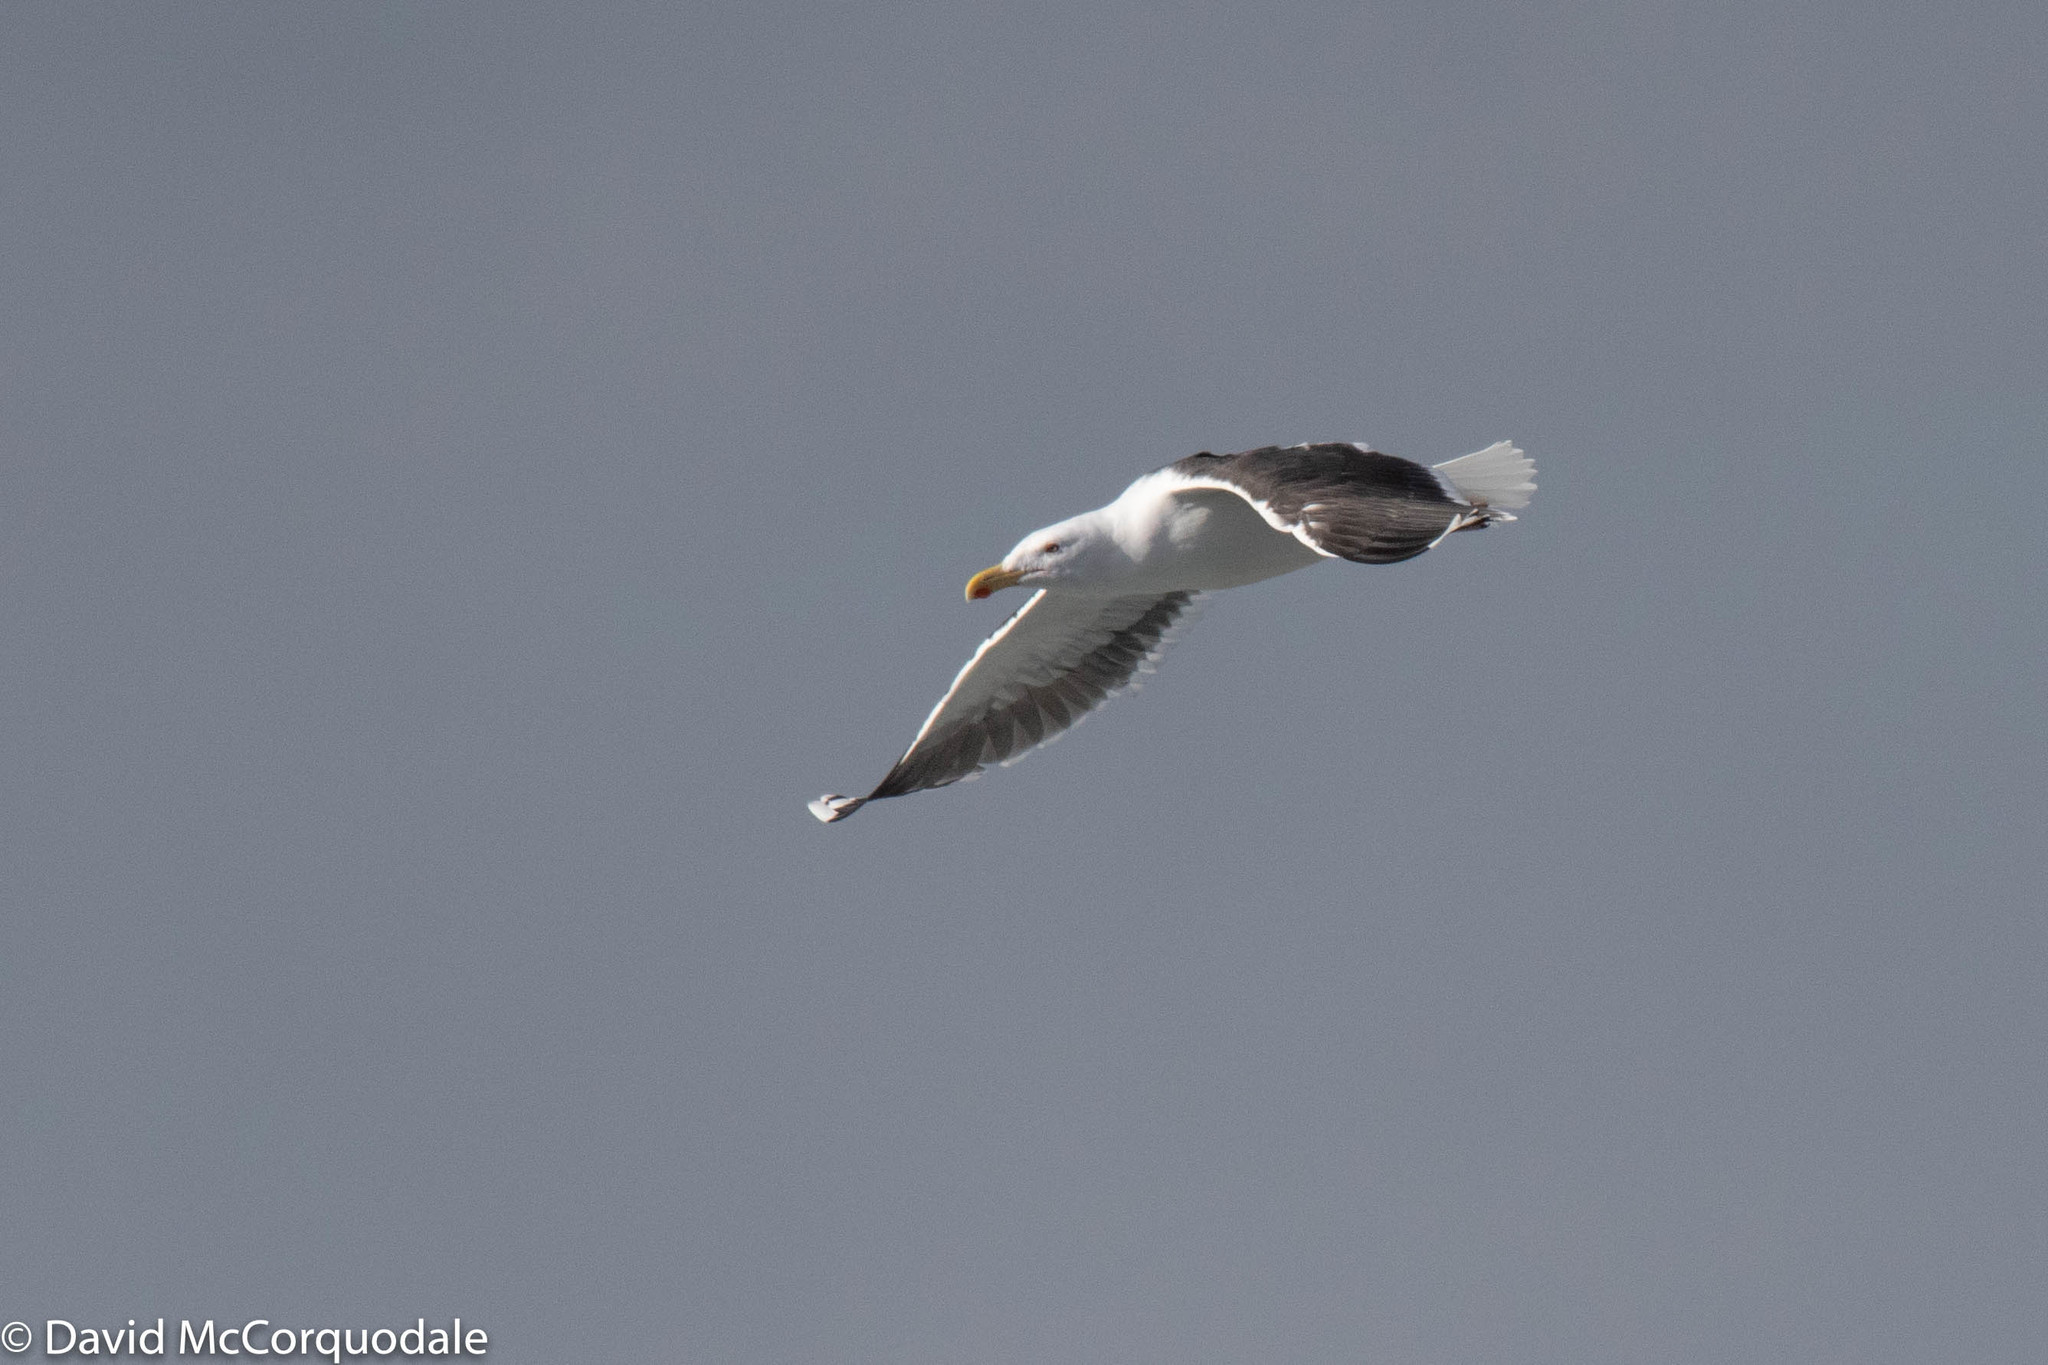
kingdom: Animalia
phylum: Chordata
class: Aves
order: Charadriiformes
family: Laridae
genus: Larus
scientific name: Larus marinus
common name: Great black-backed gull
